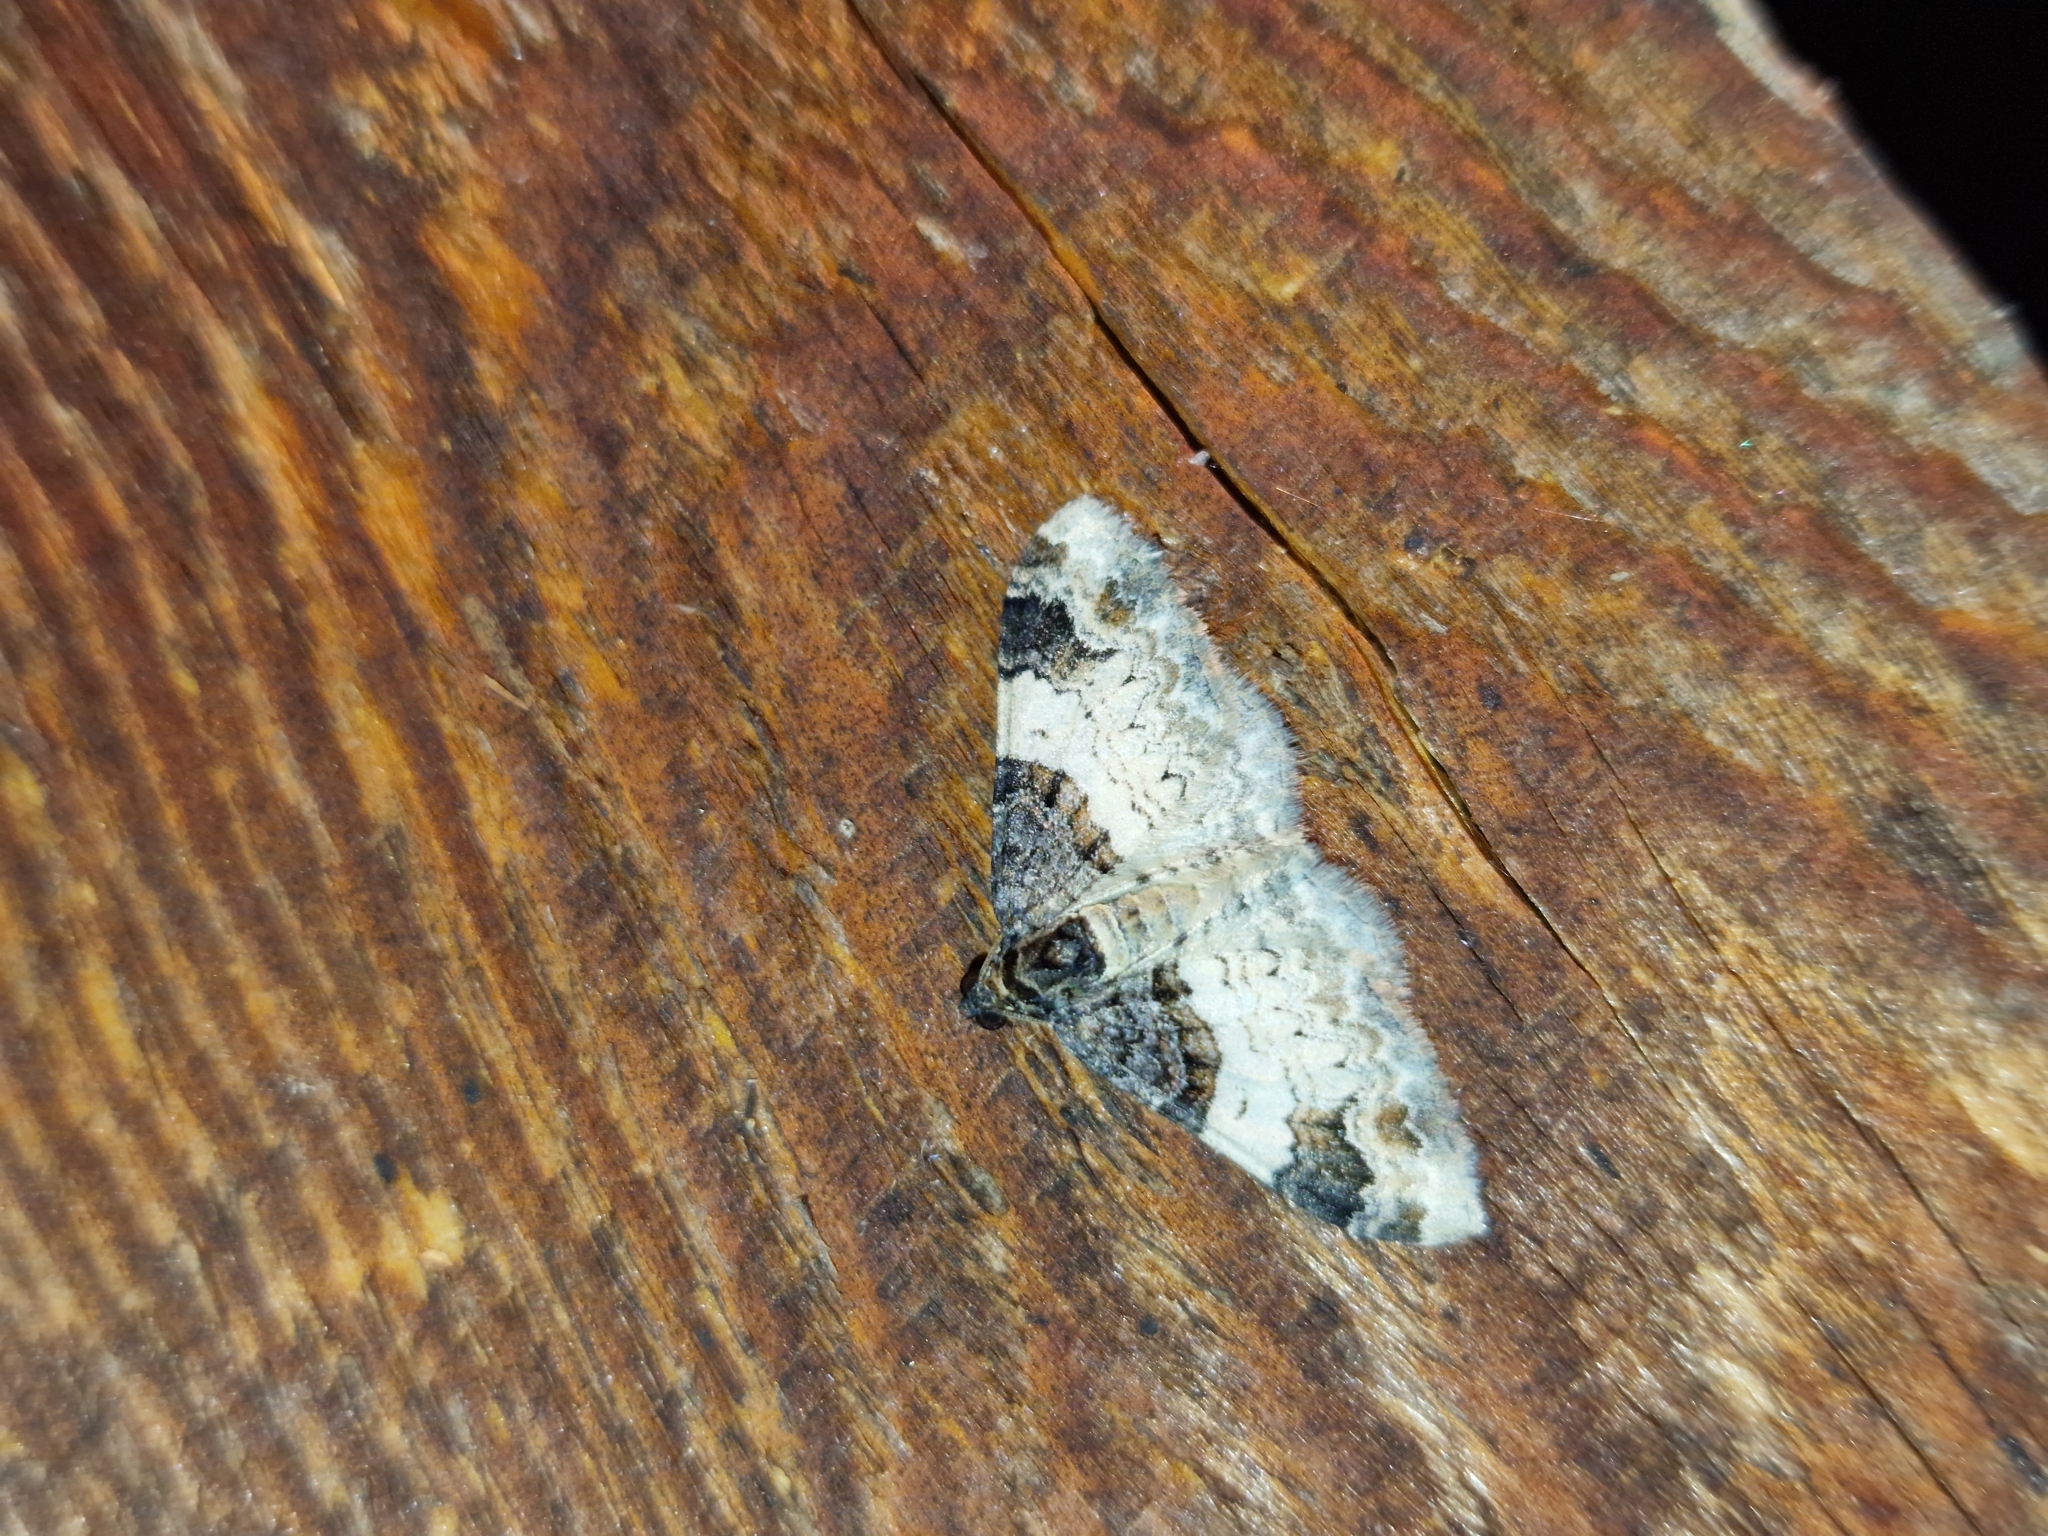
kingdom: Animalia
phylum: Arthropoda
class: Insecta
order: Lepidoptera
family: Geometridae
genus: Catarhoe
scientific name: Catarhoe cuculata
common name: Royal mantle
